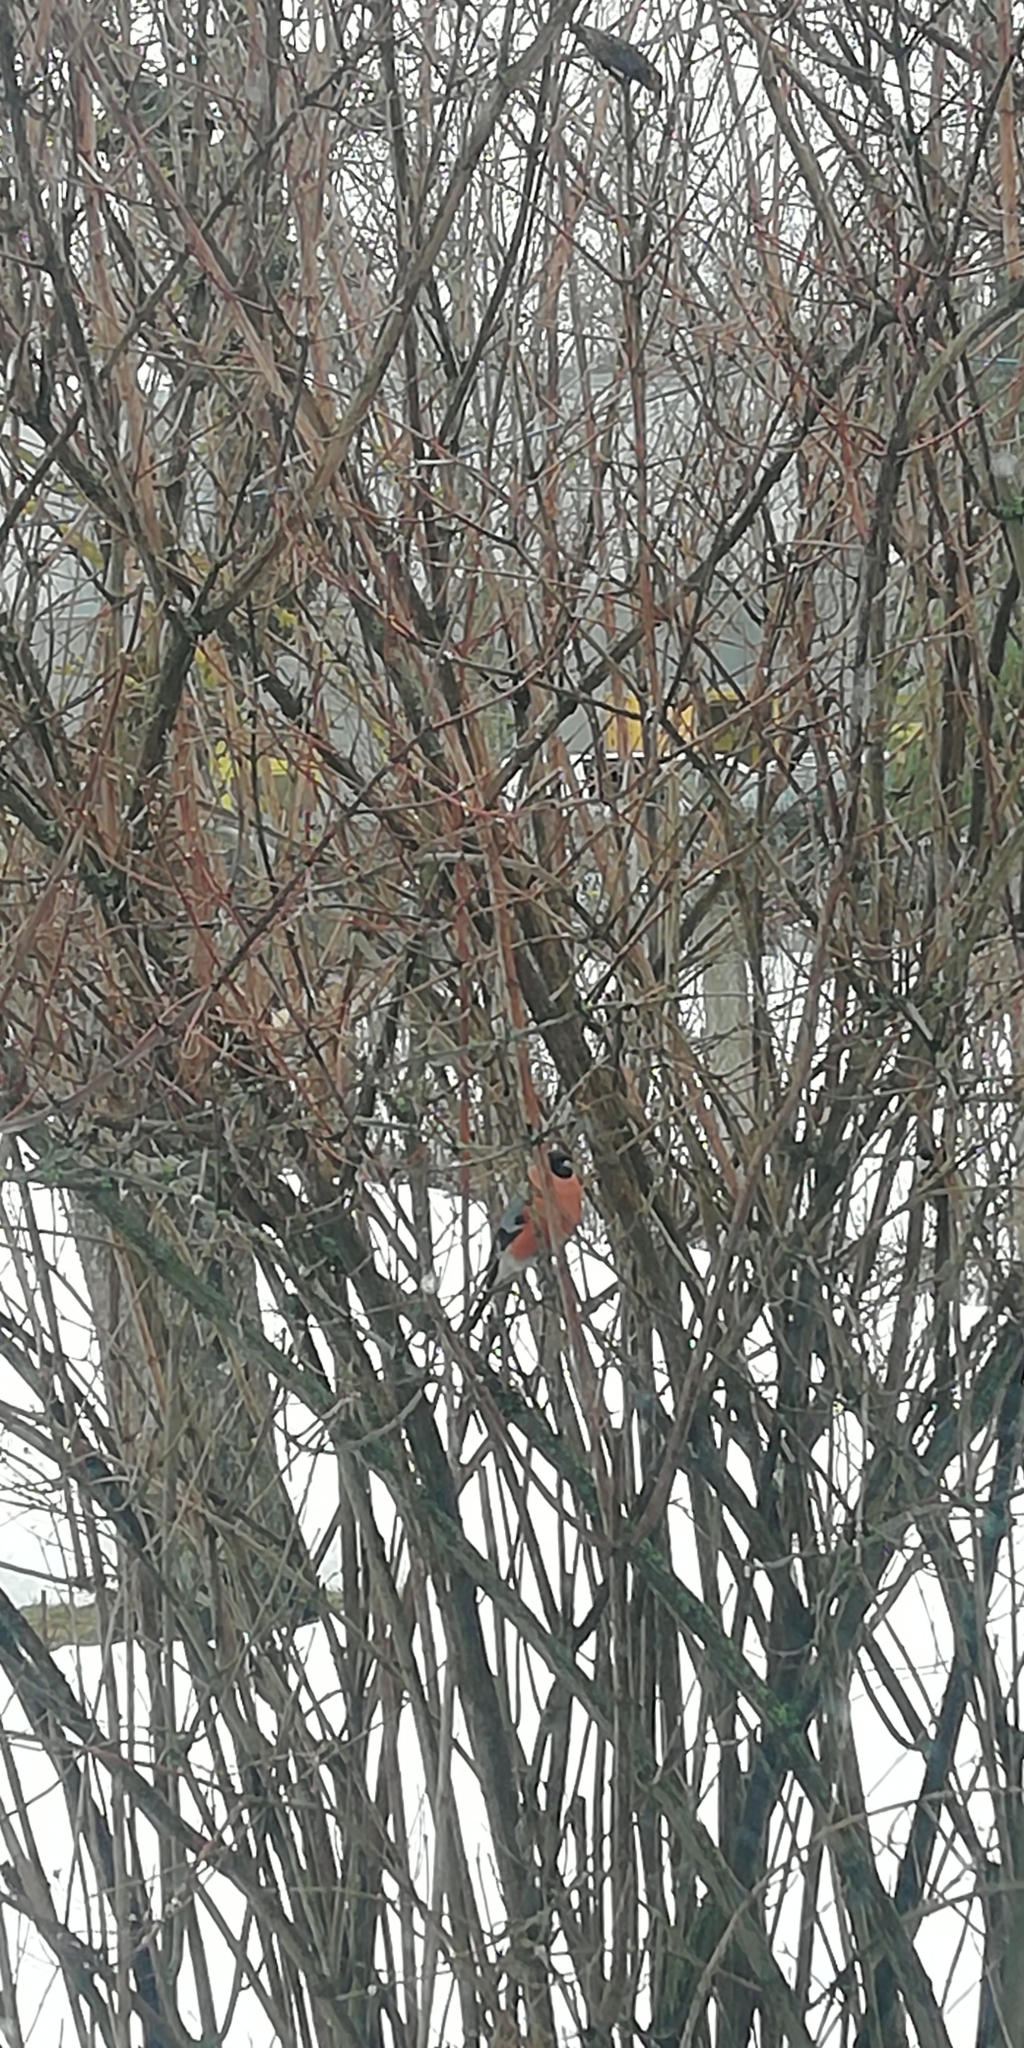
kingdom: Animalia
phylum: Chordata
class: Aves
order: Passeriformes
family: Fringillidae
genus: Pyrrhula
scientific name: Pyrrhula pyrrhula
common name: Eurasian bullfinch
